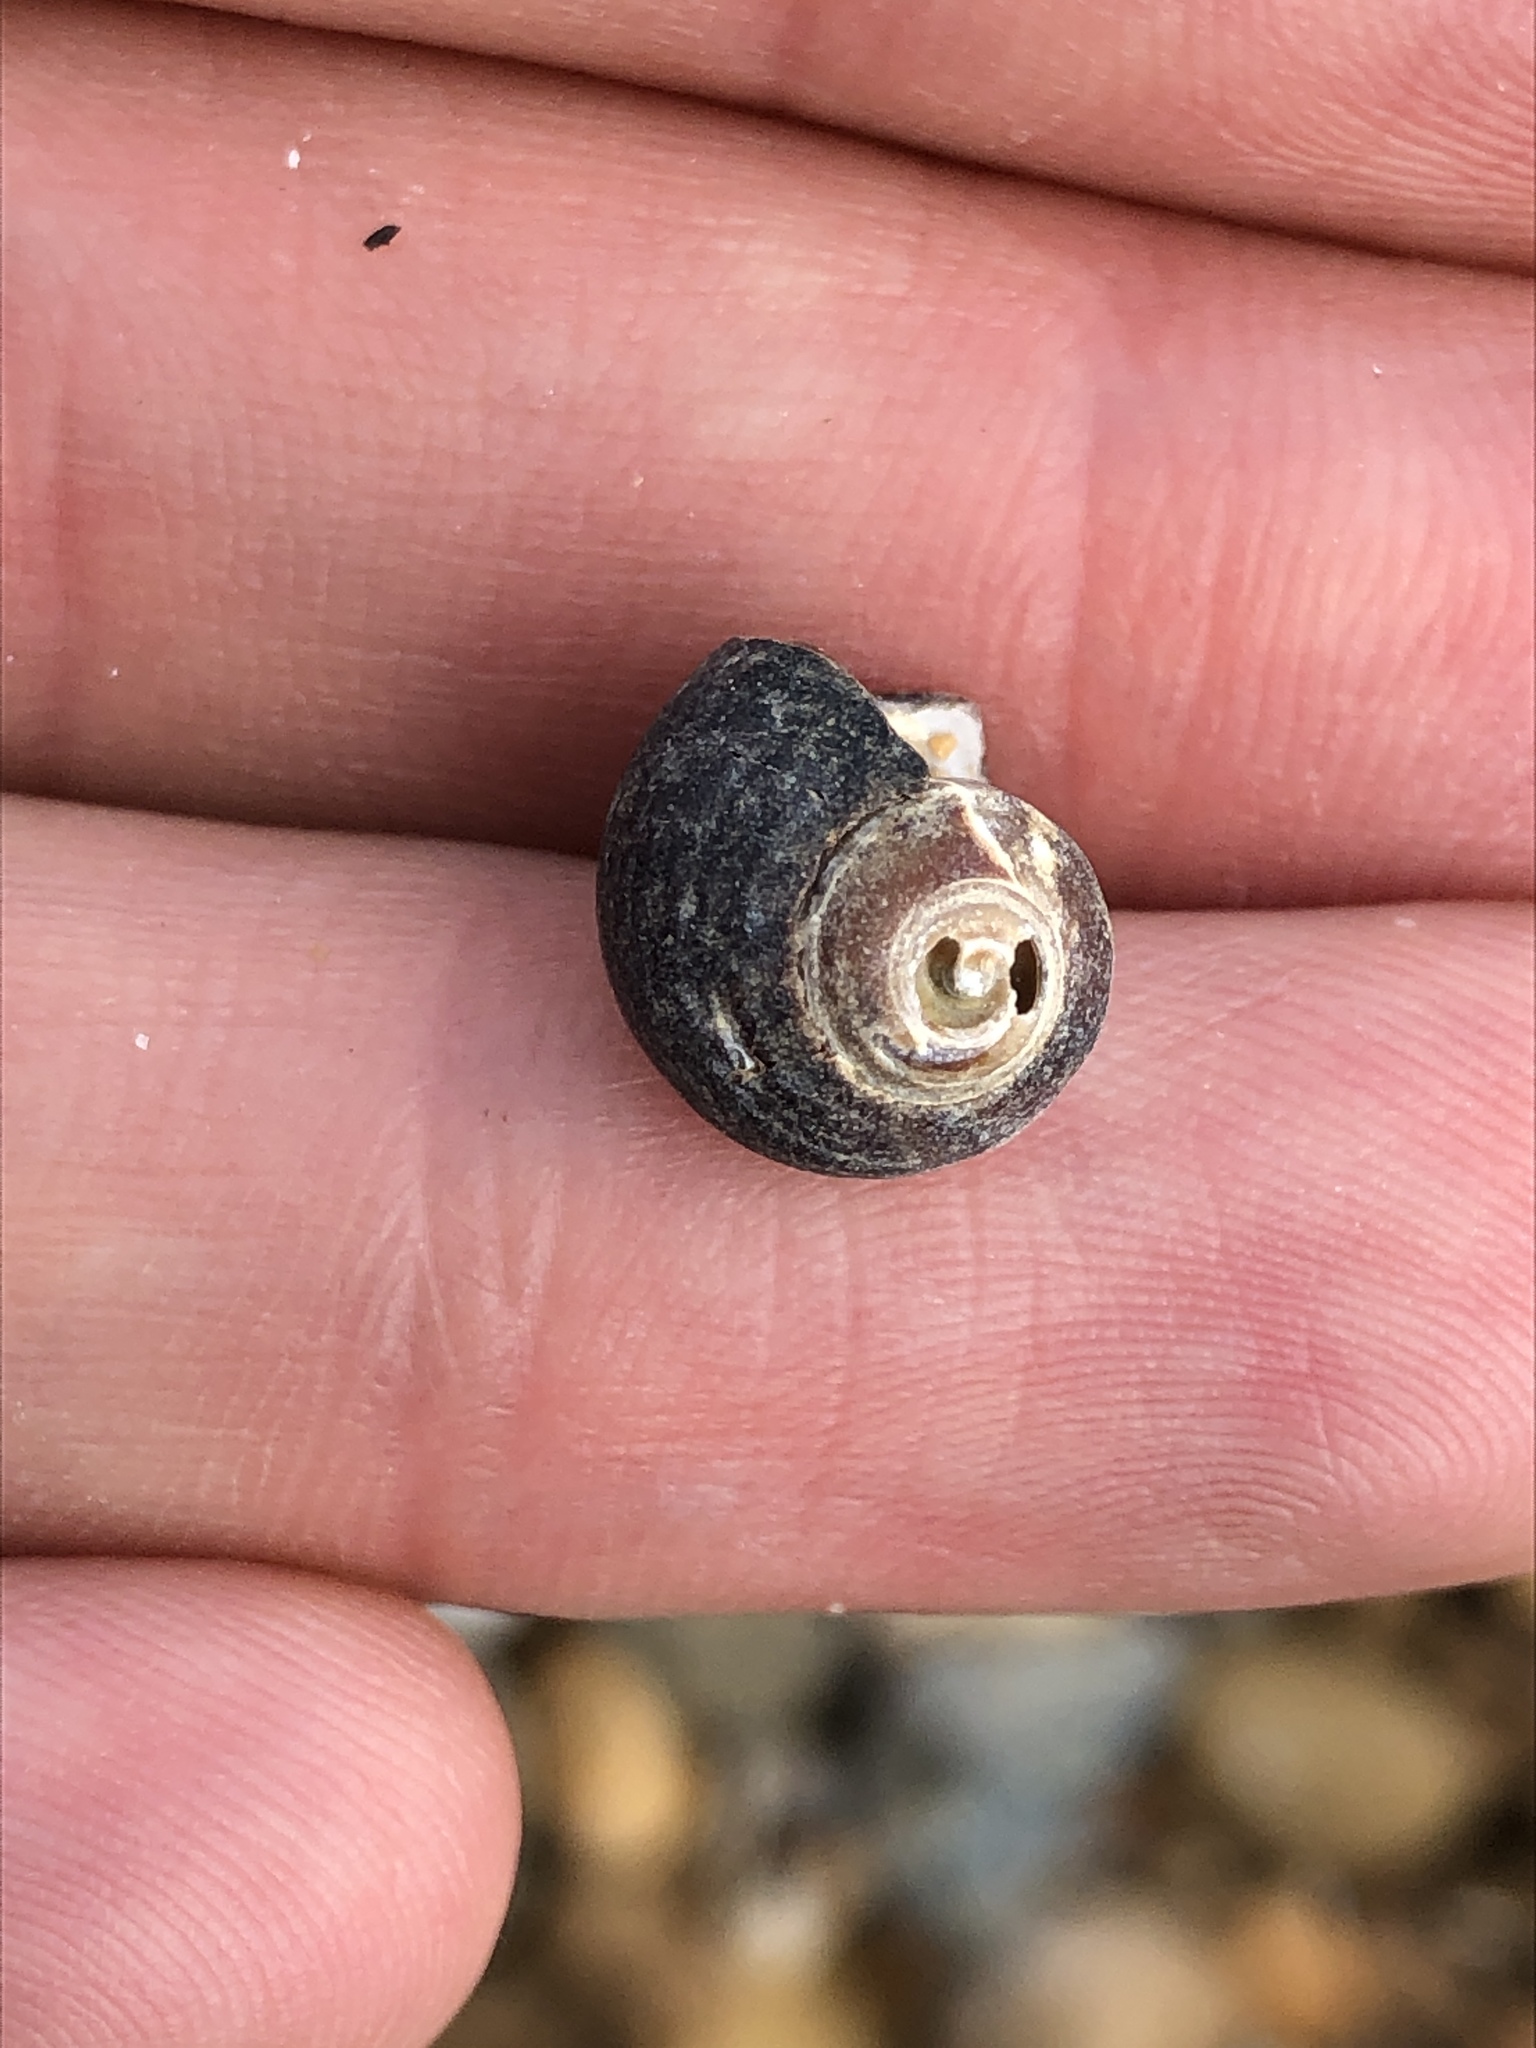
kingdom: Animalia
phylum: Mollusca
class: Gastropoda
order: Littorinimorpha
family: Littorinidae
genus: Littorina
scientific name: Littorina littorea
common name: Common periwinkle
